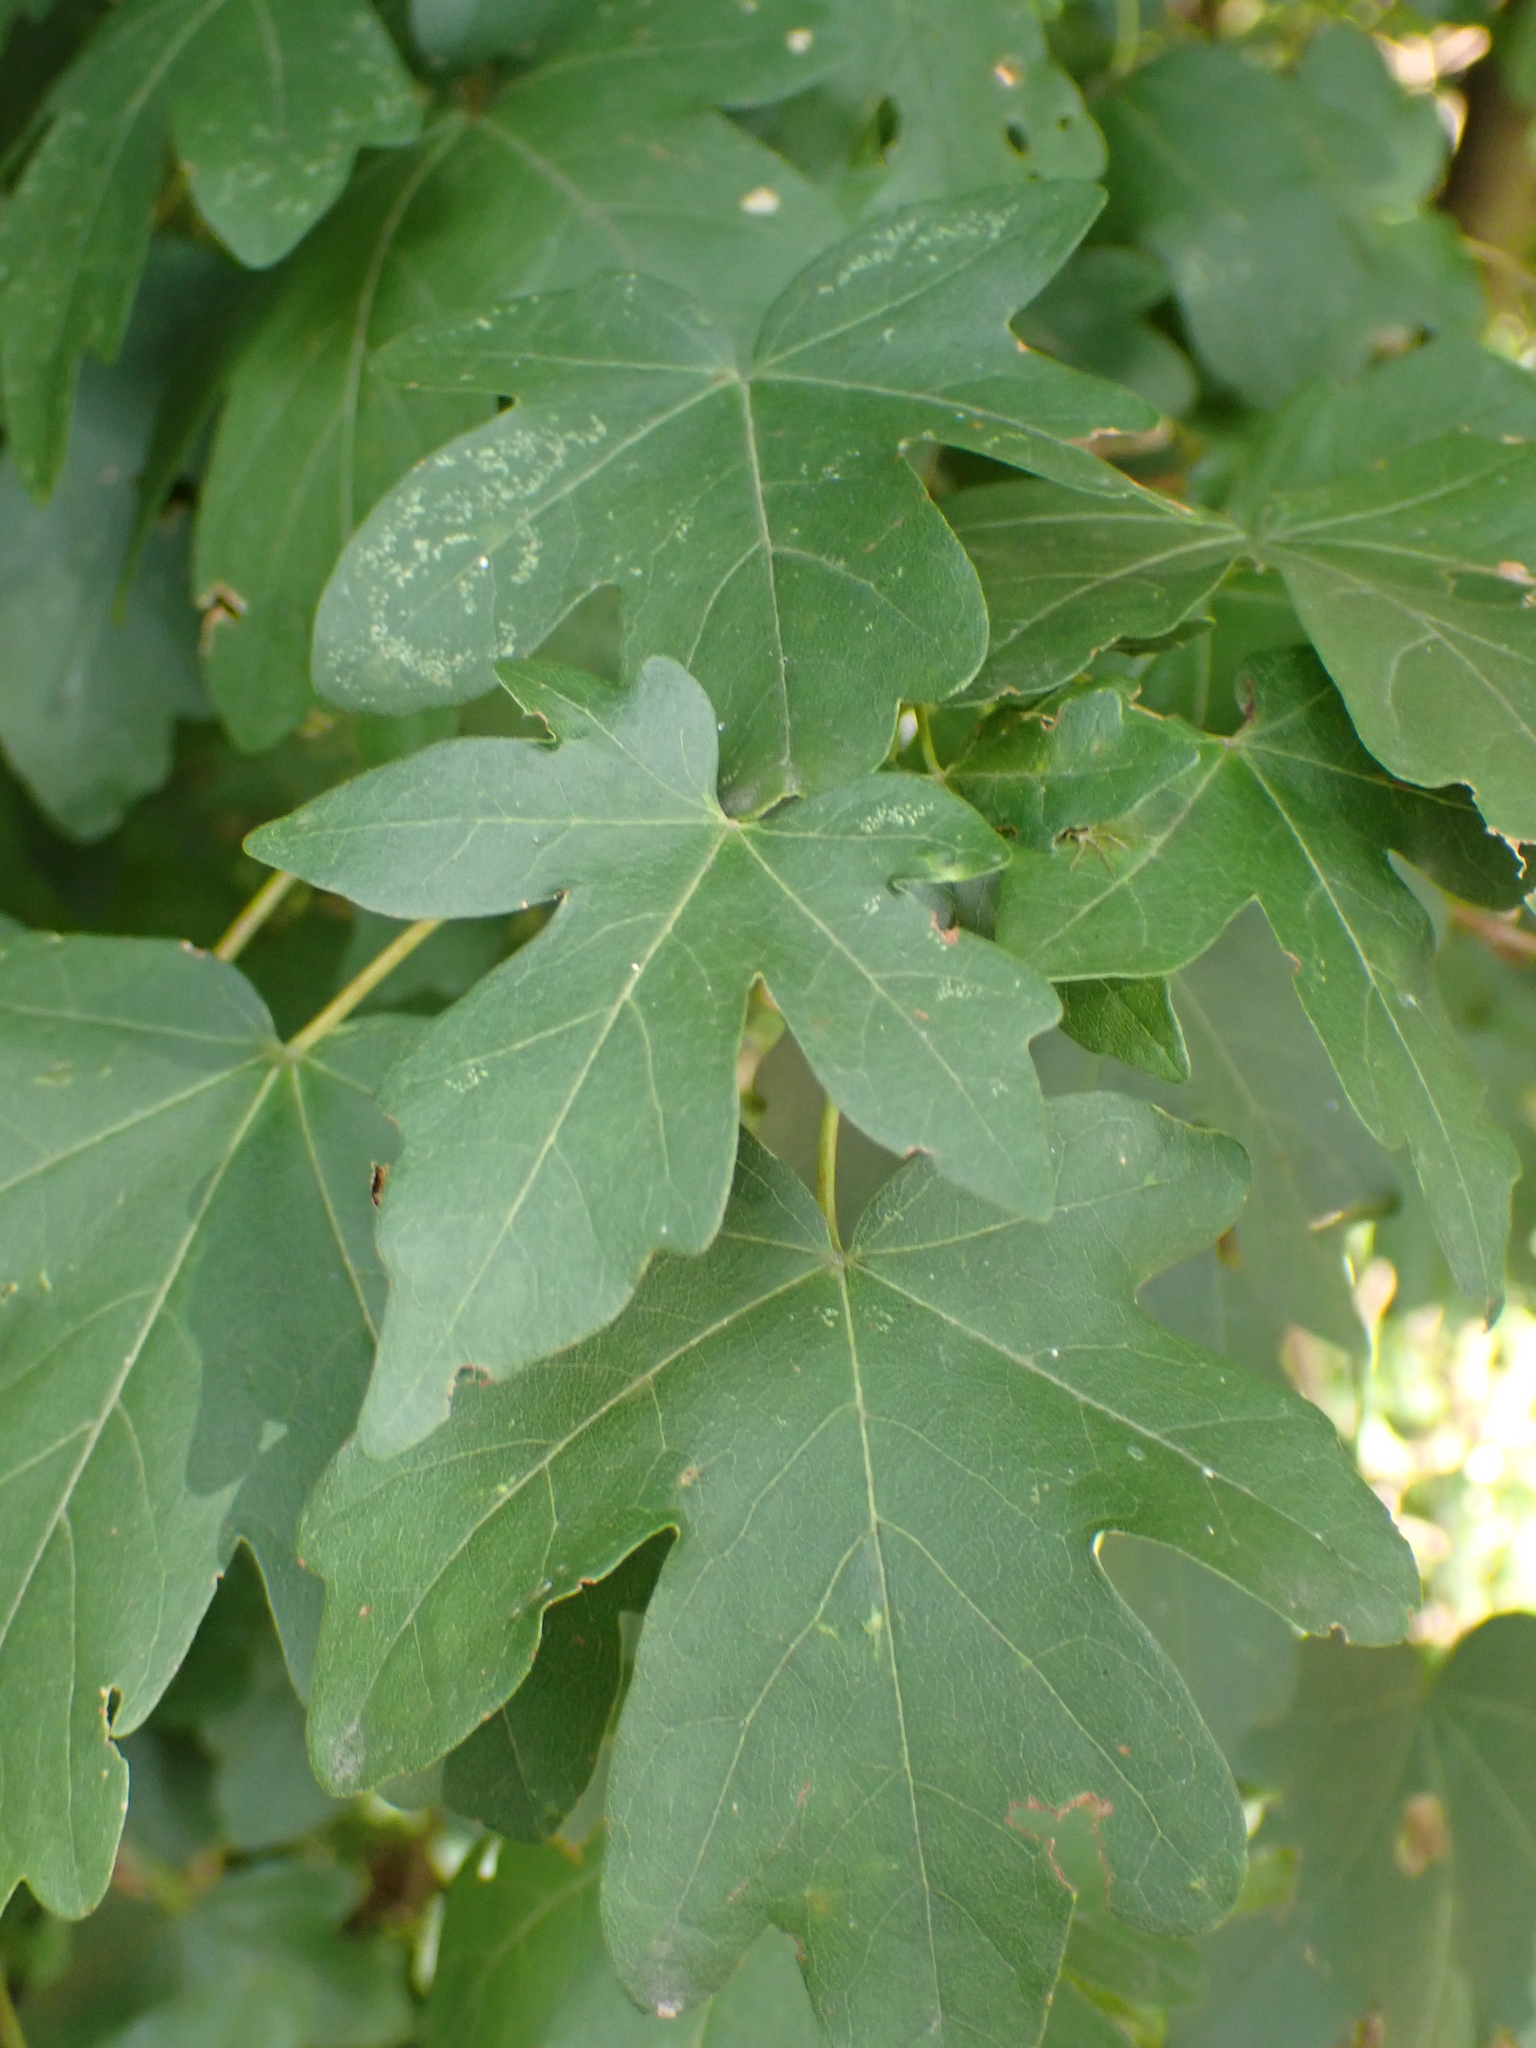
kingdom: Plantae
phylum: Tracheophyta
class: Magnoliopsida
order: Sapindales
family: Sapindaceae
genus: Acer
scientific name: Acer campestre
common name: Field maple
